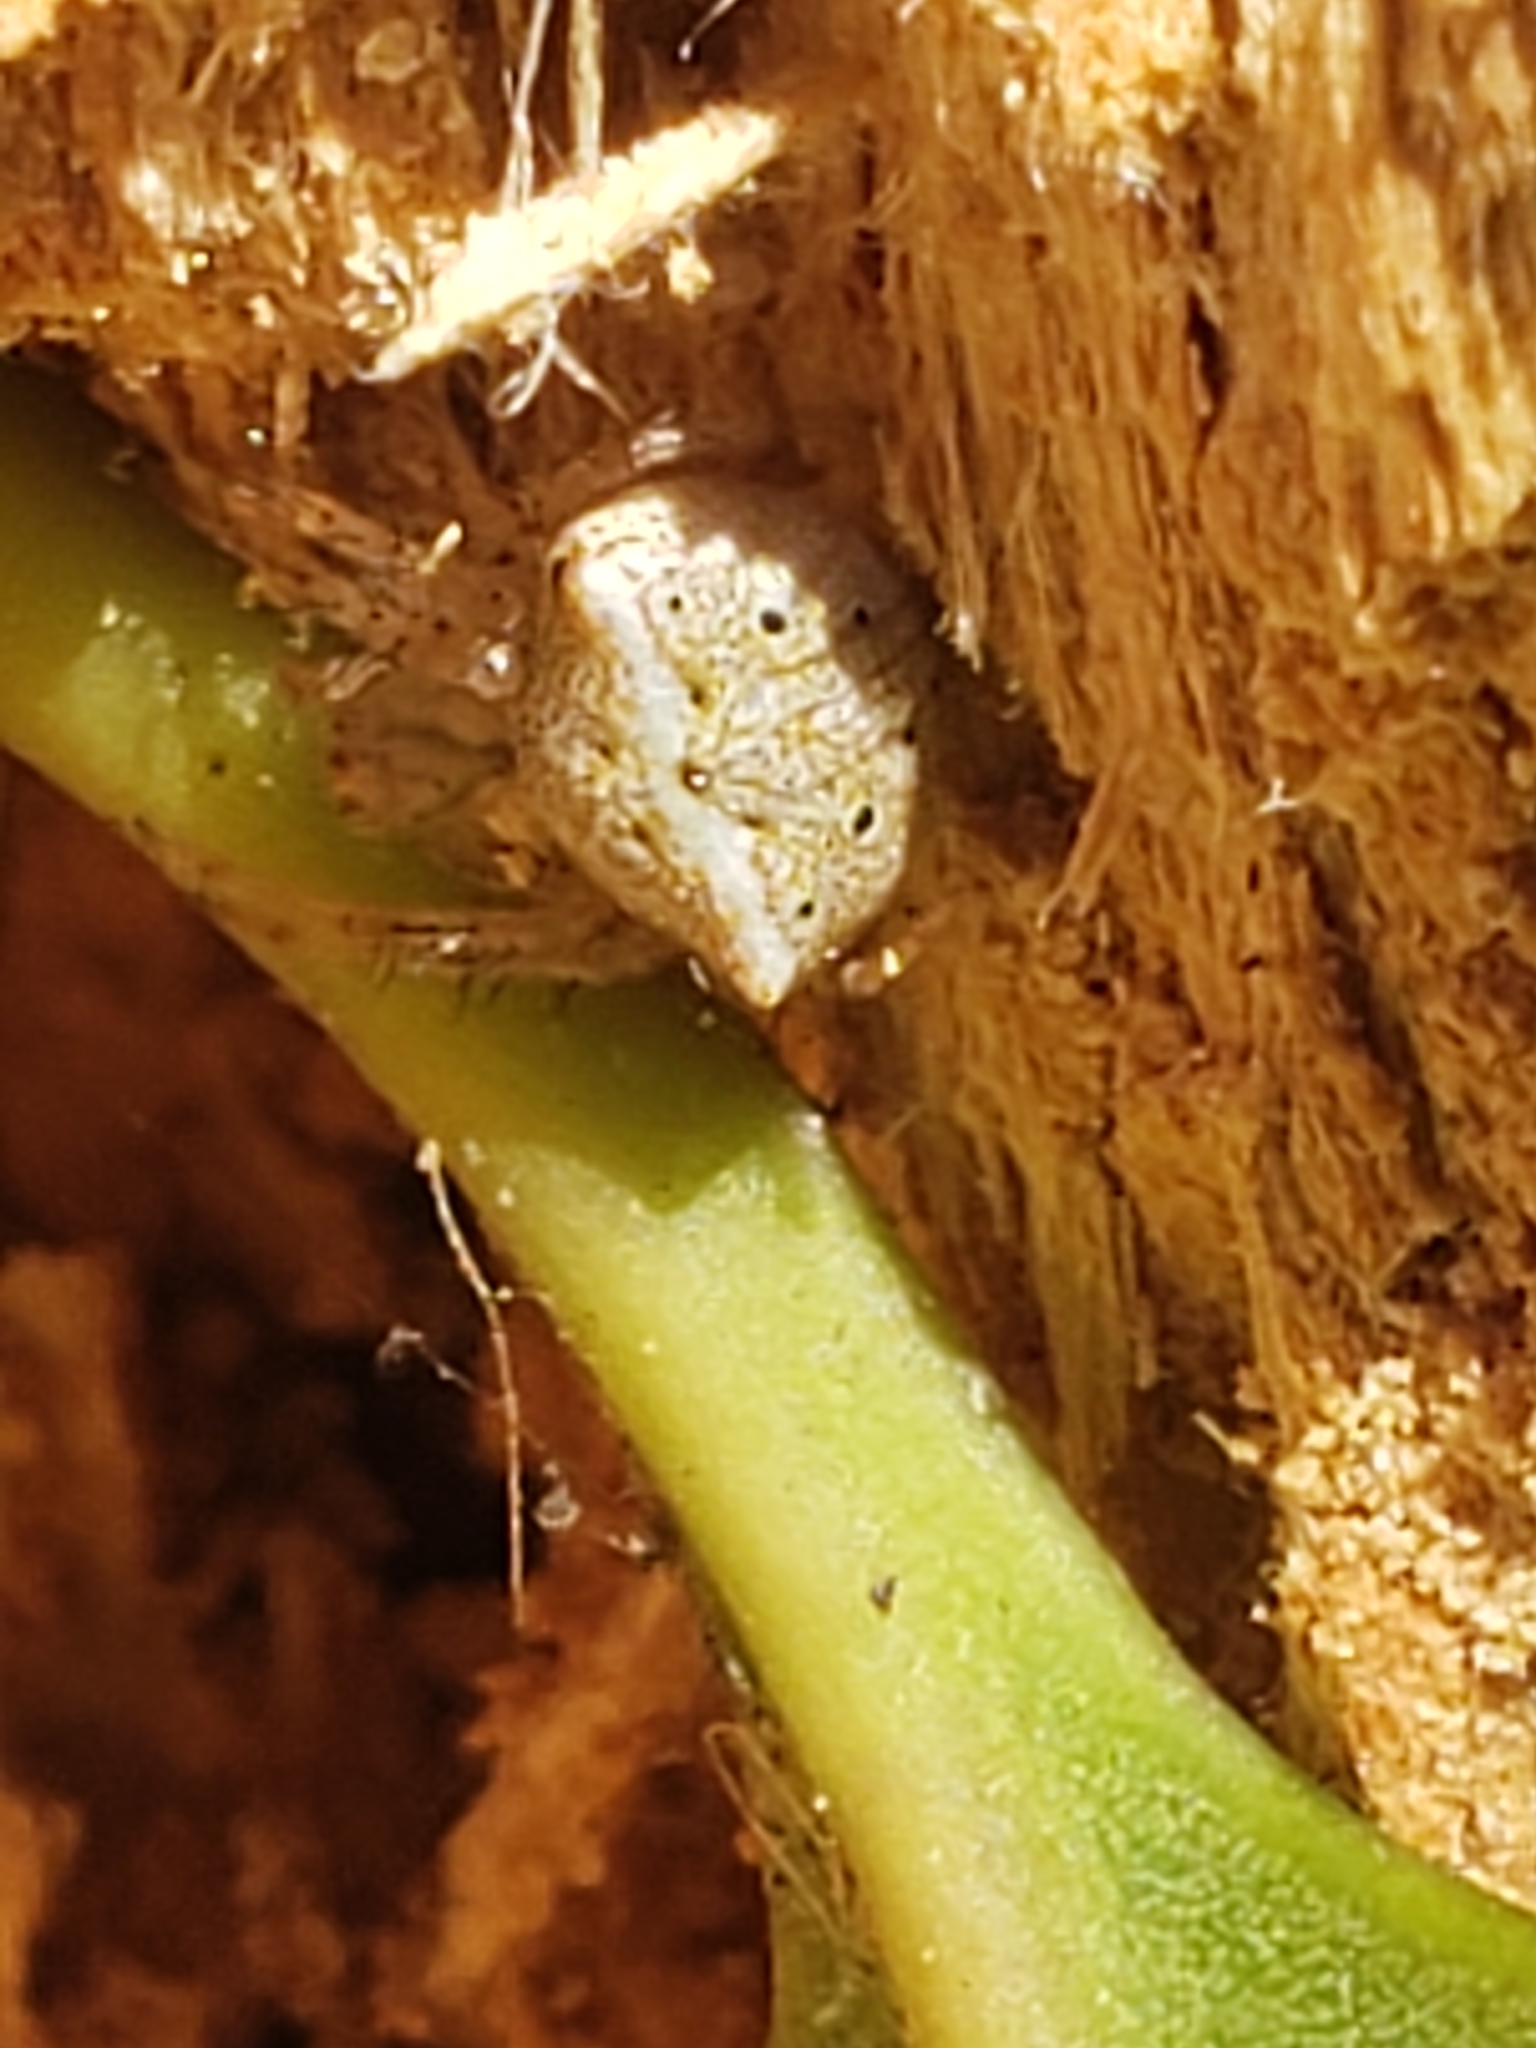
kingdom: Animalia
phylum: Arthropoda
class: Arachnida
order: Araneae
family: Araneidae
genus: Araneus
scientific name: Araneus miniatus
